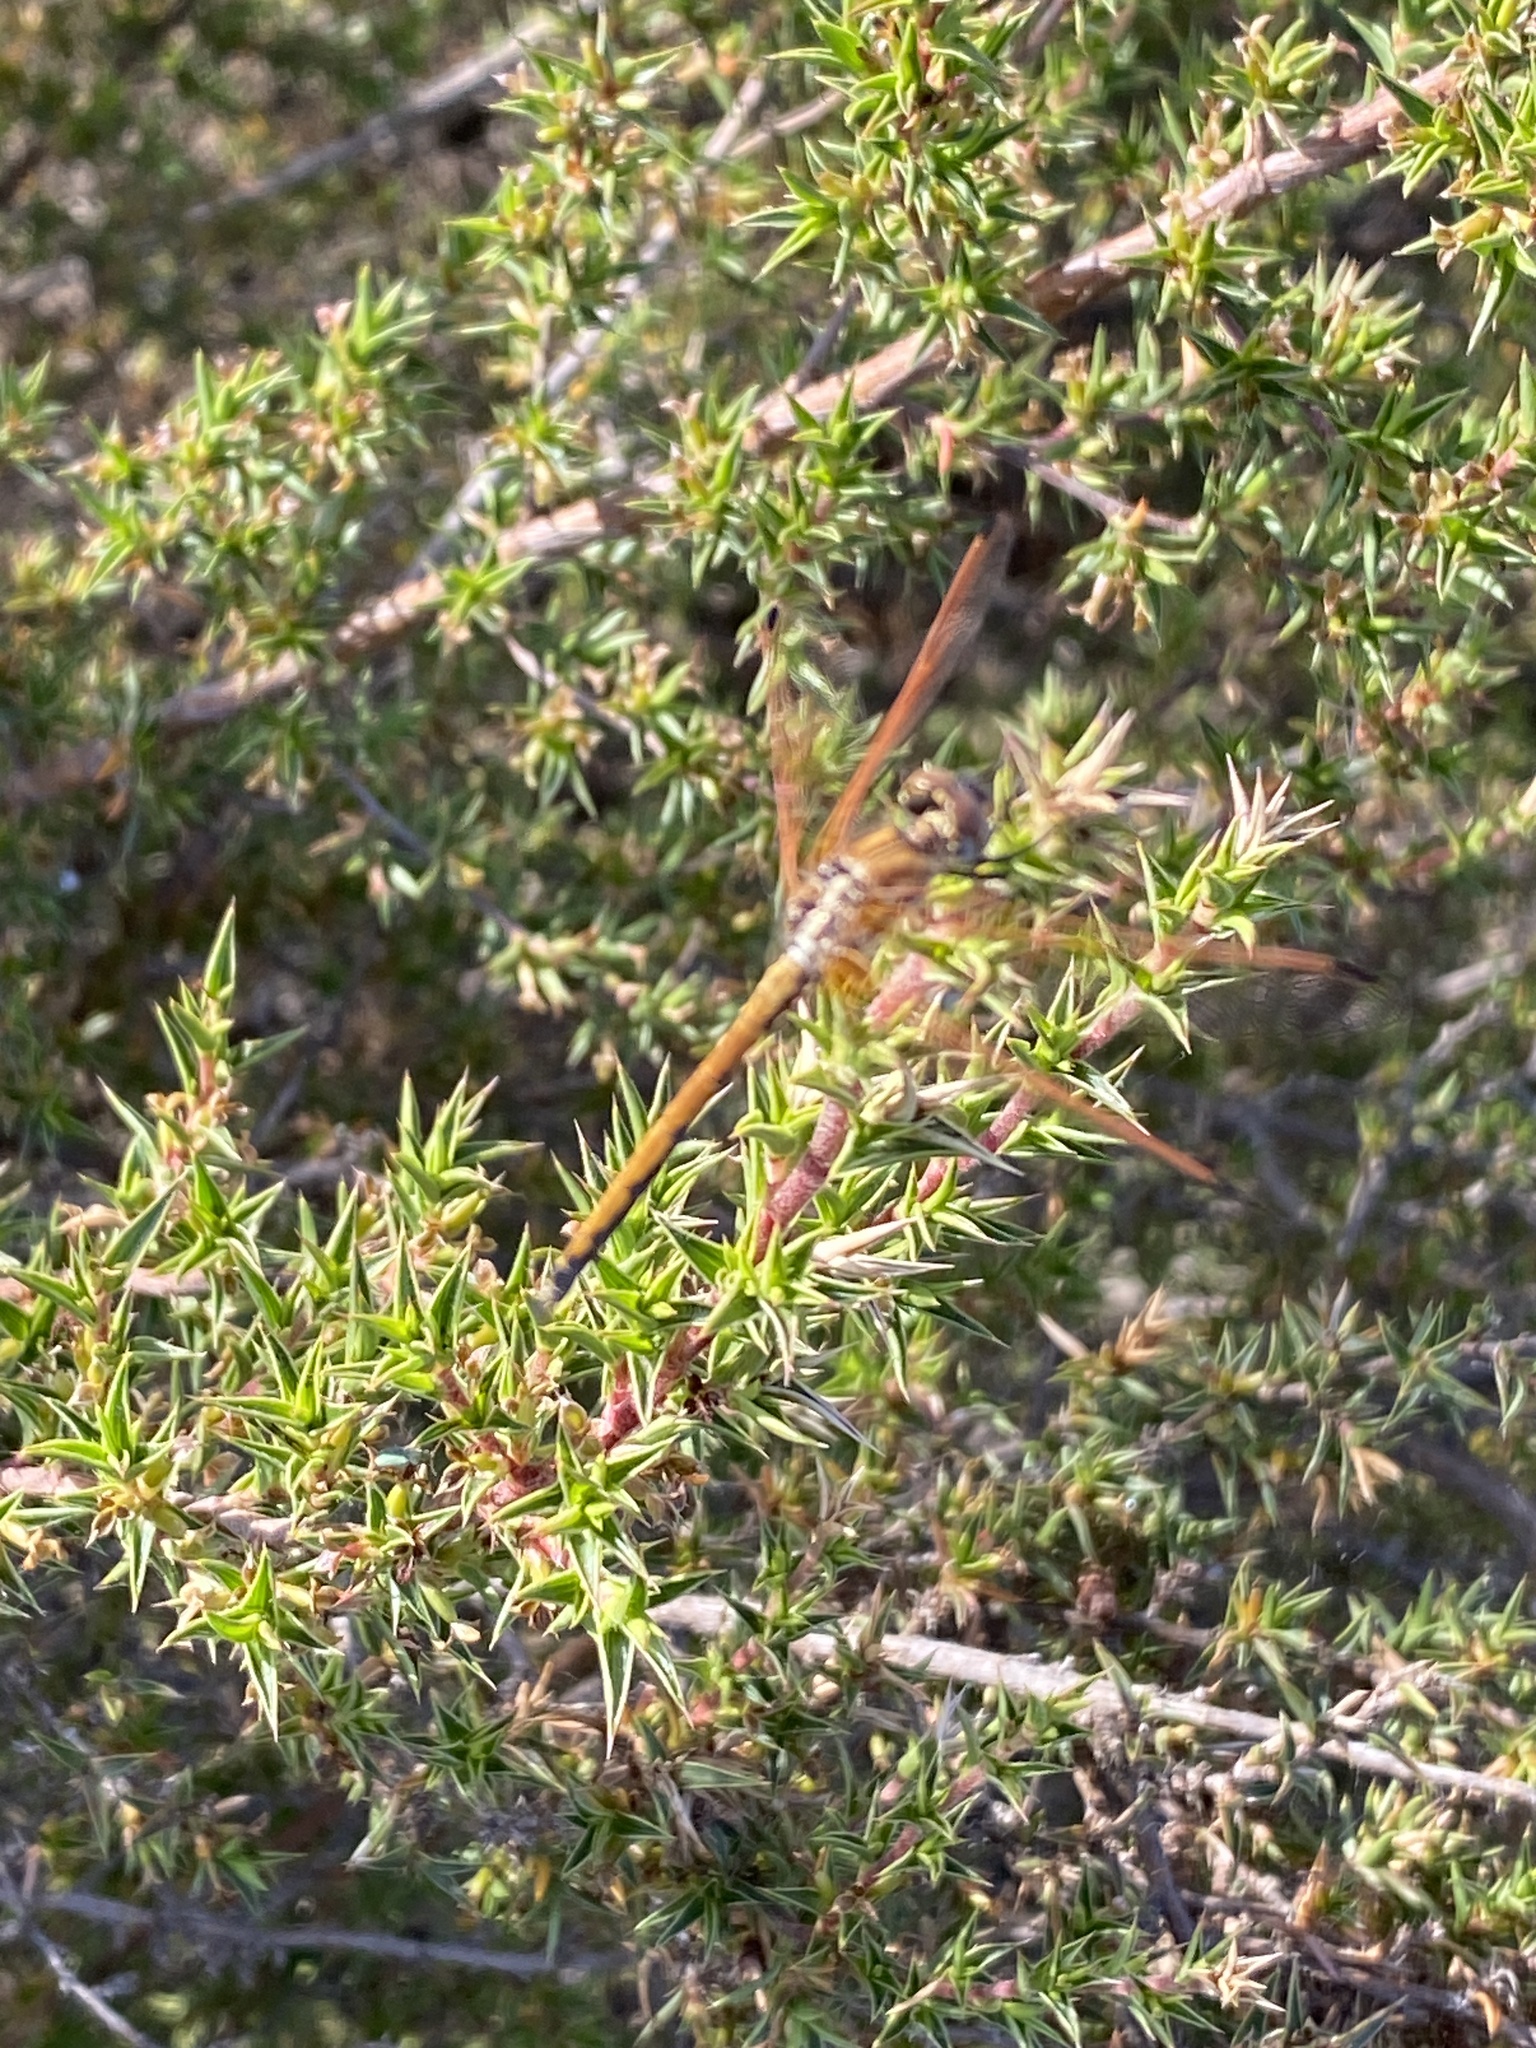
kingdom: Animalia
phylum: Arthropoda
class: Insecta
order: Odonata
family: Libellulidae
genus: Trithemis
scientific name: Trithemis arteriosa
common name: Red-veined dropwing
